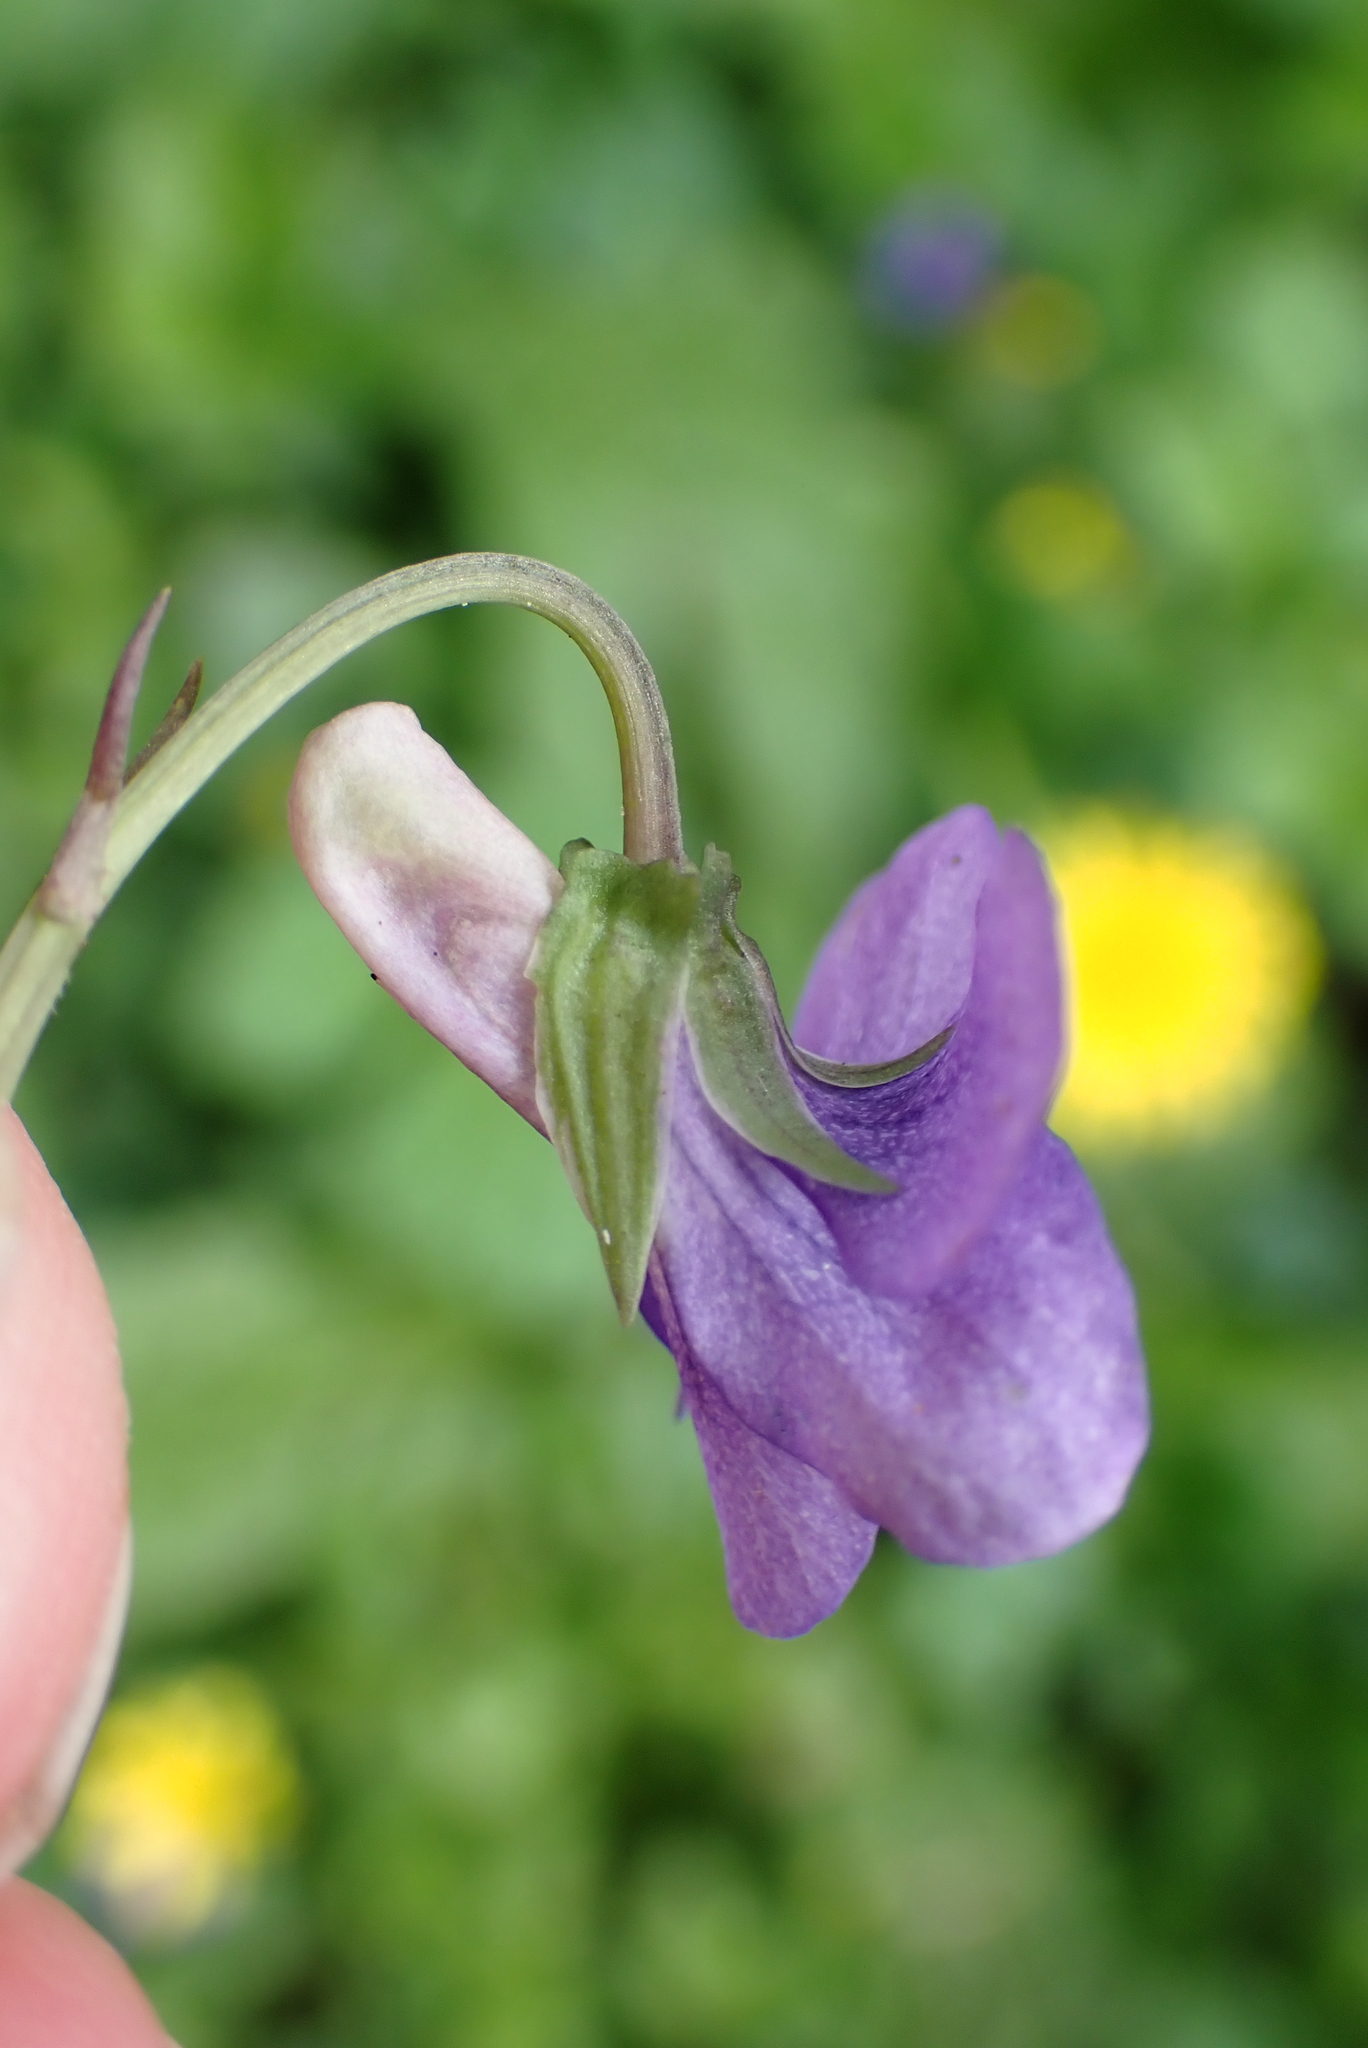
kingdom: Plantae
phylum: Tracheophyta
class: Magnoliopsida
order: Malpighiales
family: Violaceae
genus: Viola
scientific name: Viola riviniana
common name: Common dog-violet
